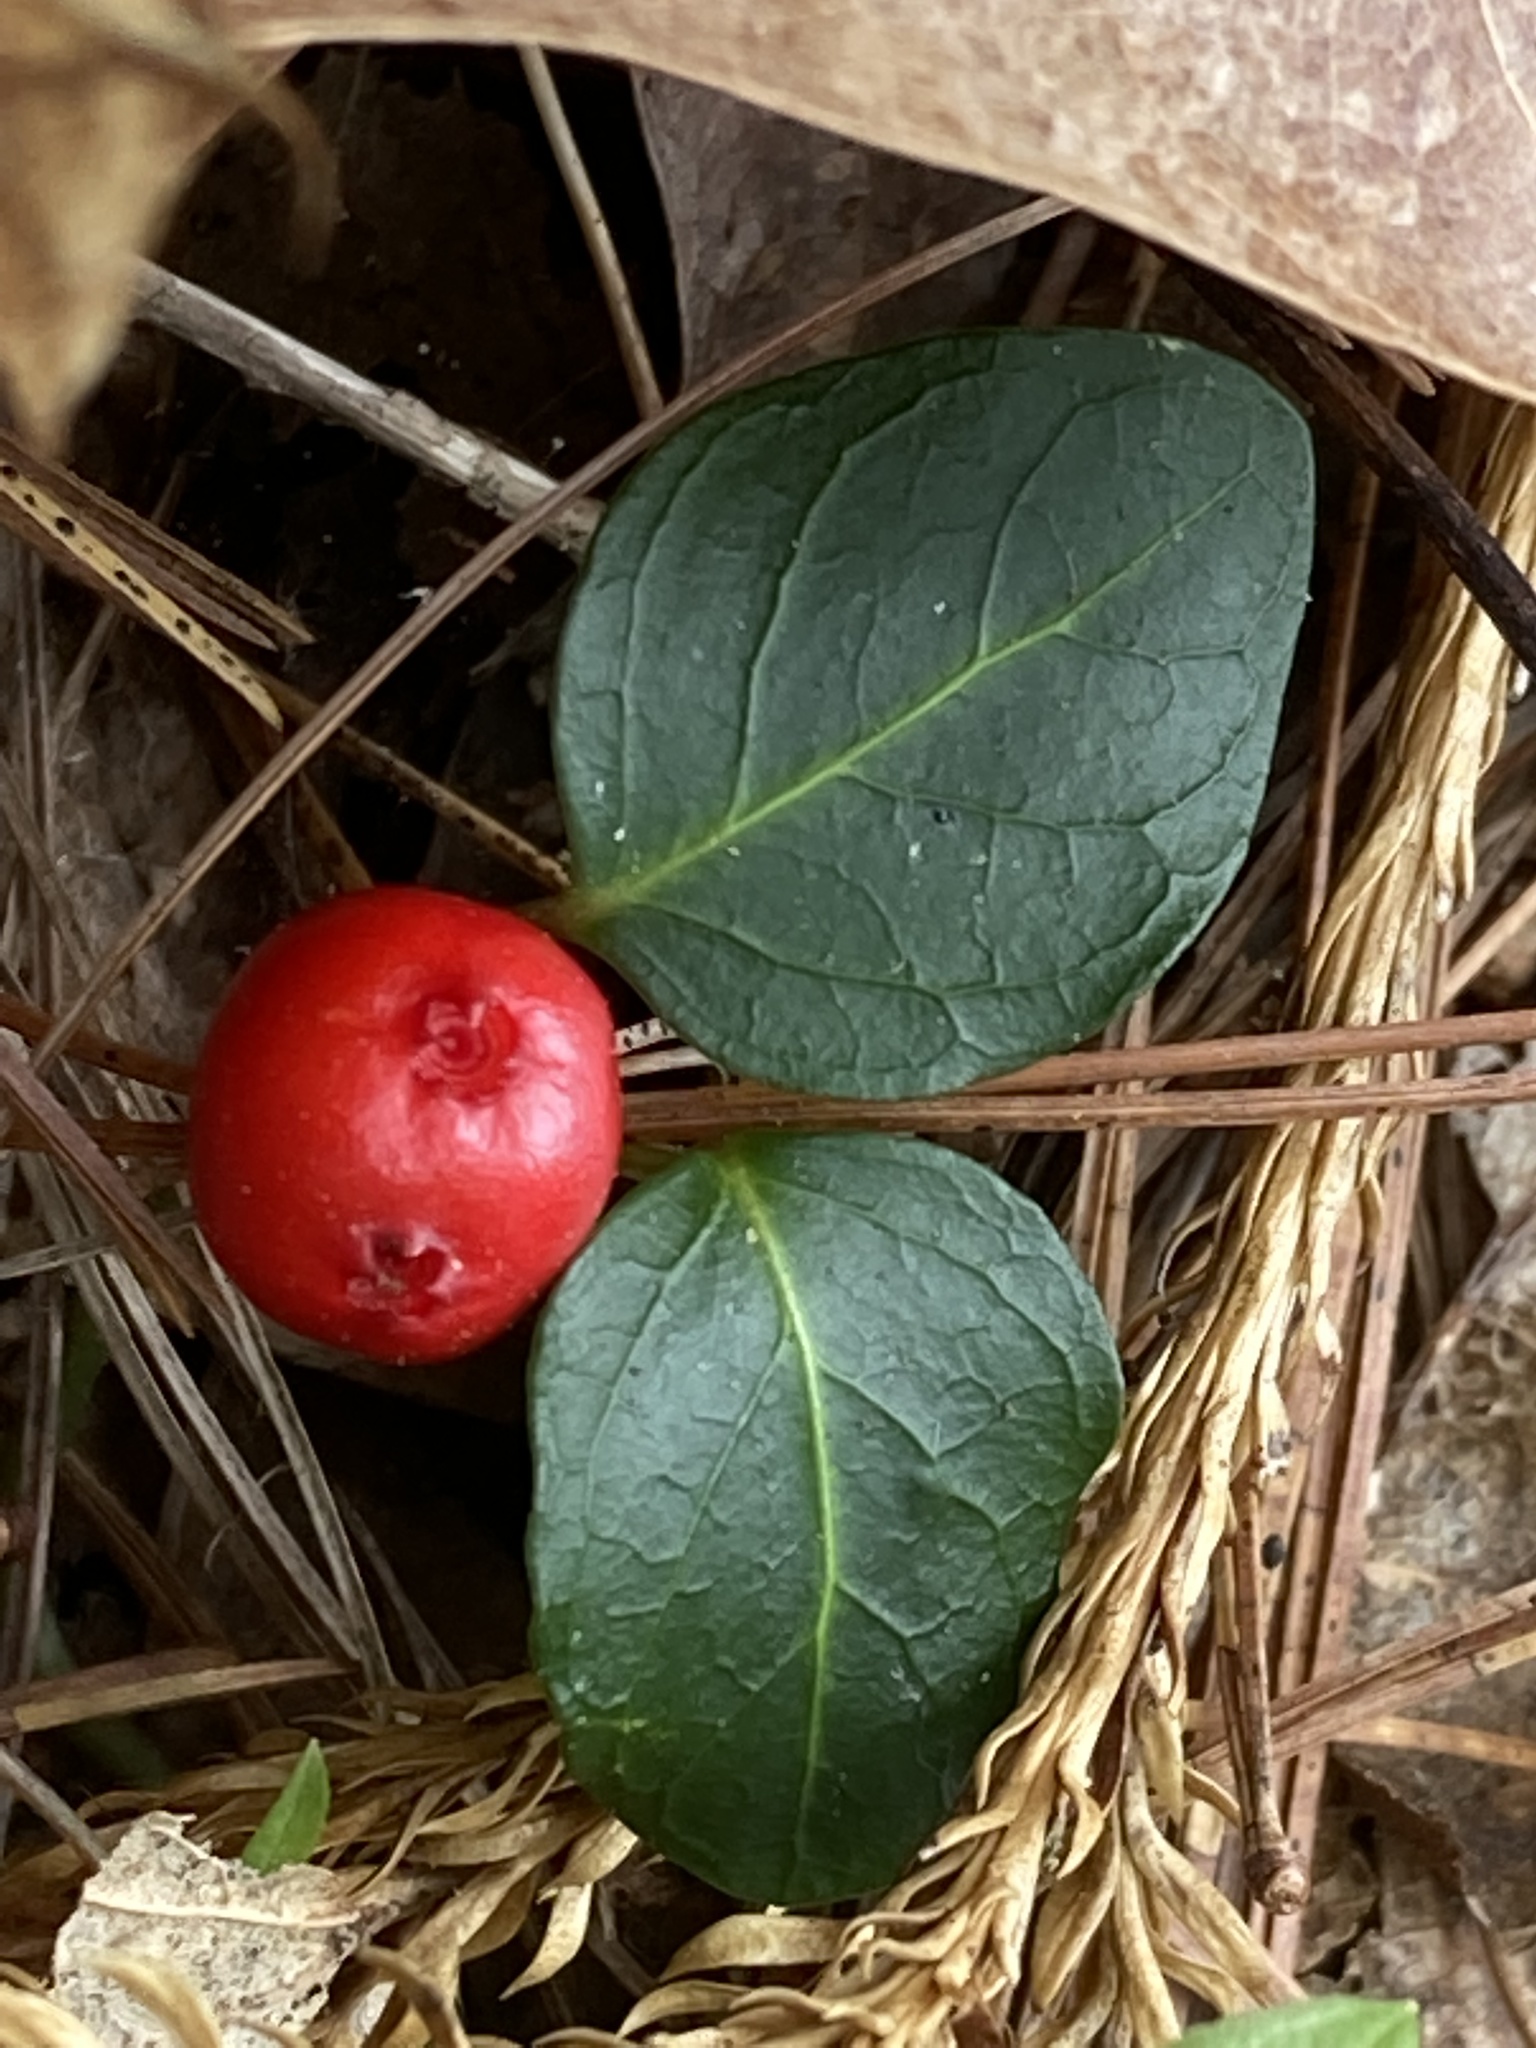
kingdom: Plantae
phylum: Tracheophyta
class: Magnoliopsida
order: Gentianales
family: Rubiaceae
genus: Mitchella
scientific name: Mitchella repens
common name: Partridge-berry
